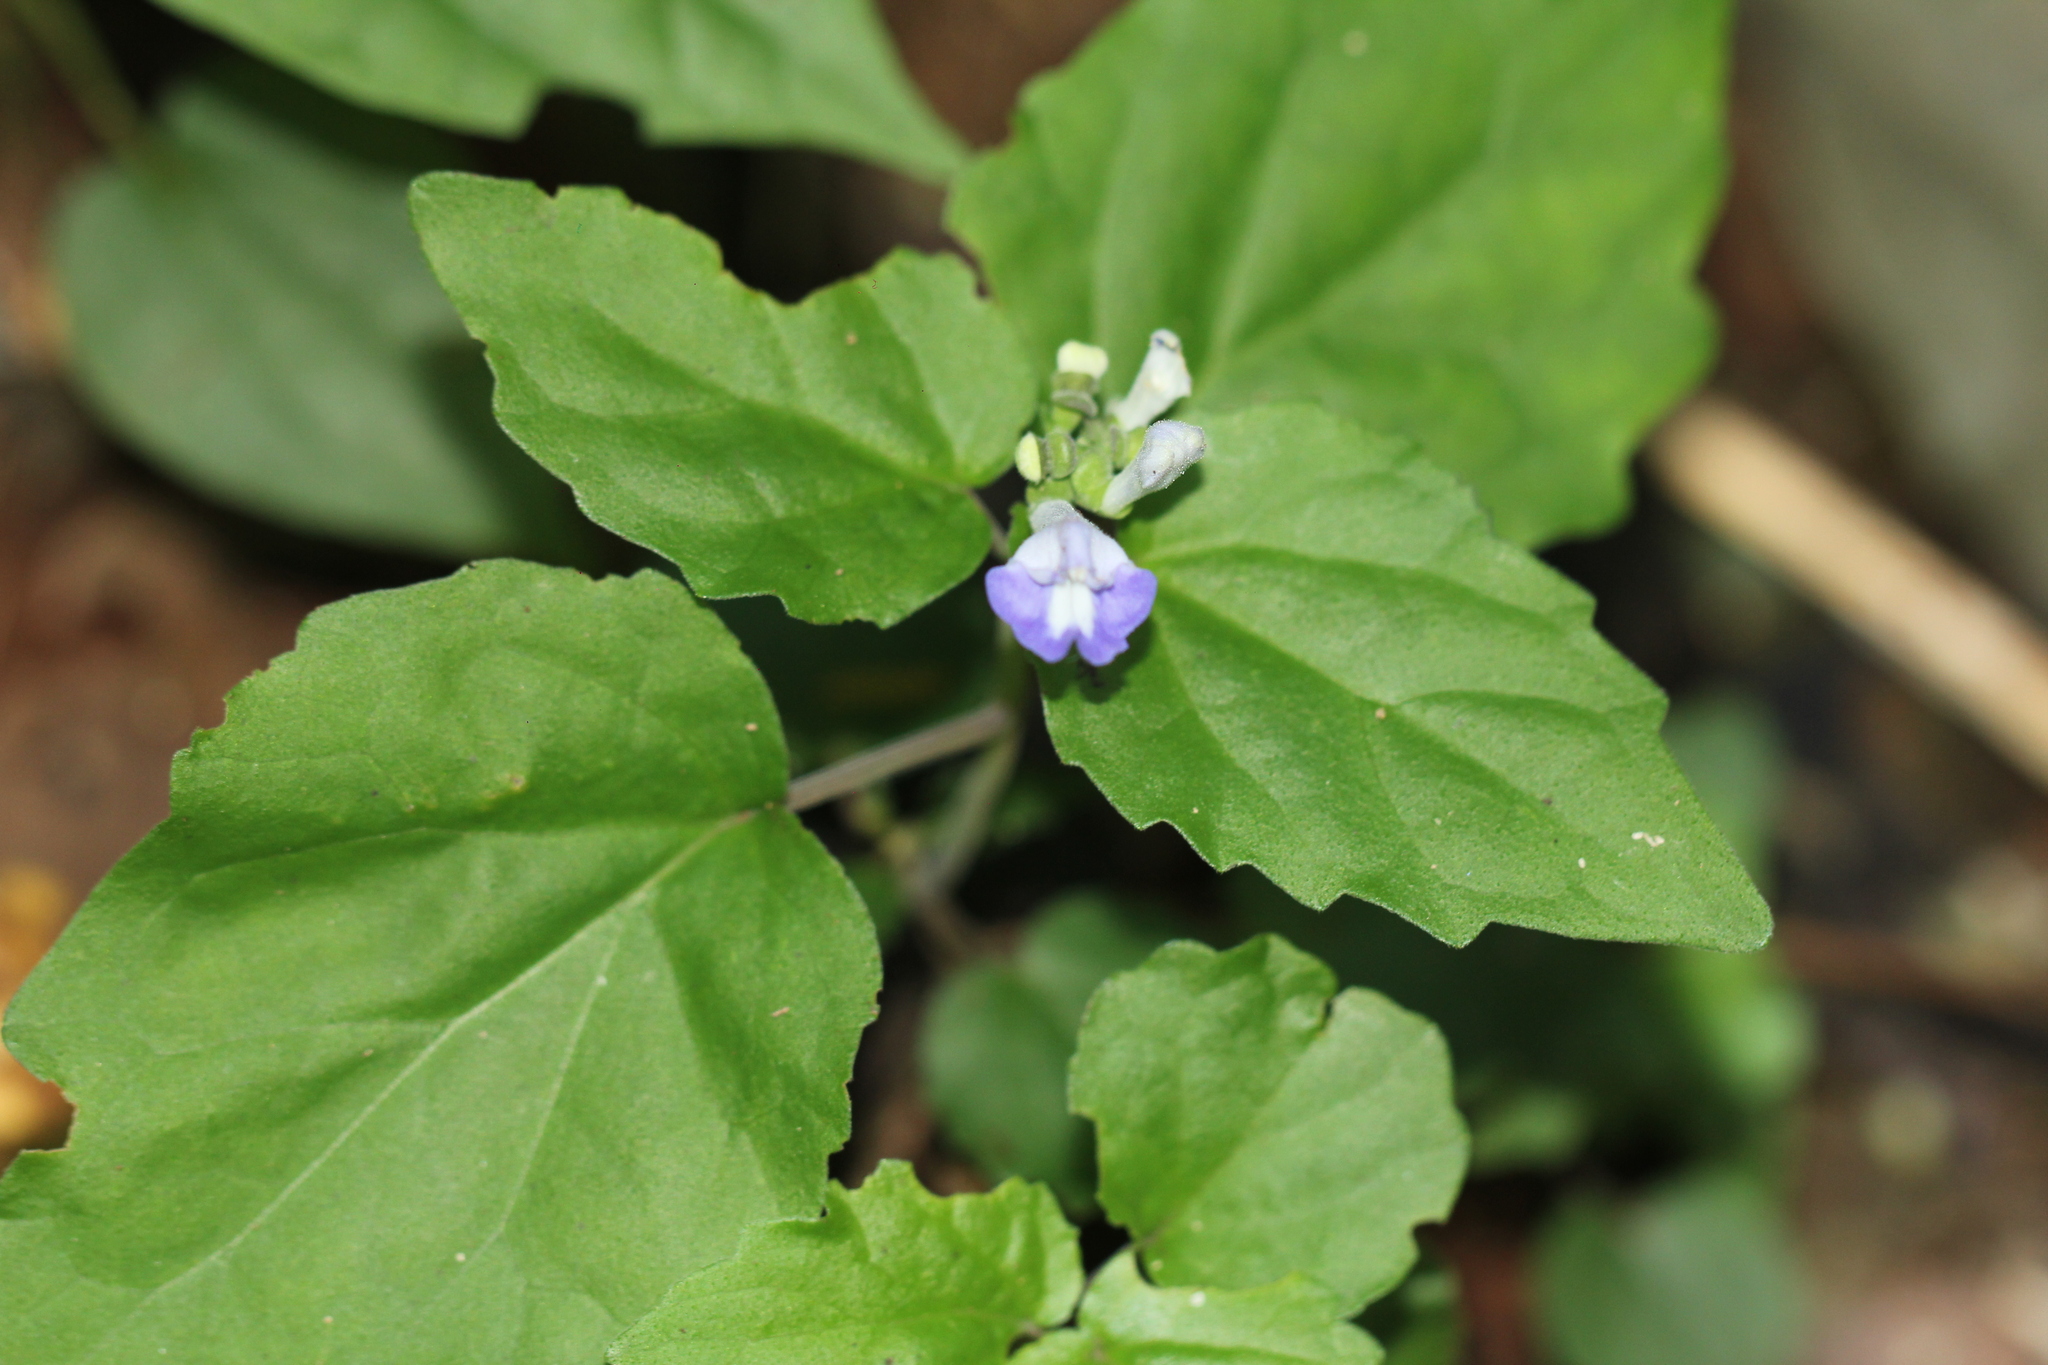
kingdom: Plantae
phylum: Tracheophyta
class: Magnoliopsida
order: Lamiales
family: Lamiaceae
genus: Scutellaria
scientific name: Scutellaria uliginosa
